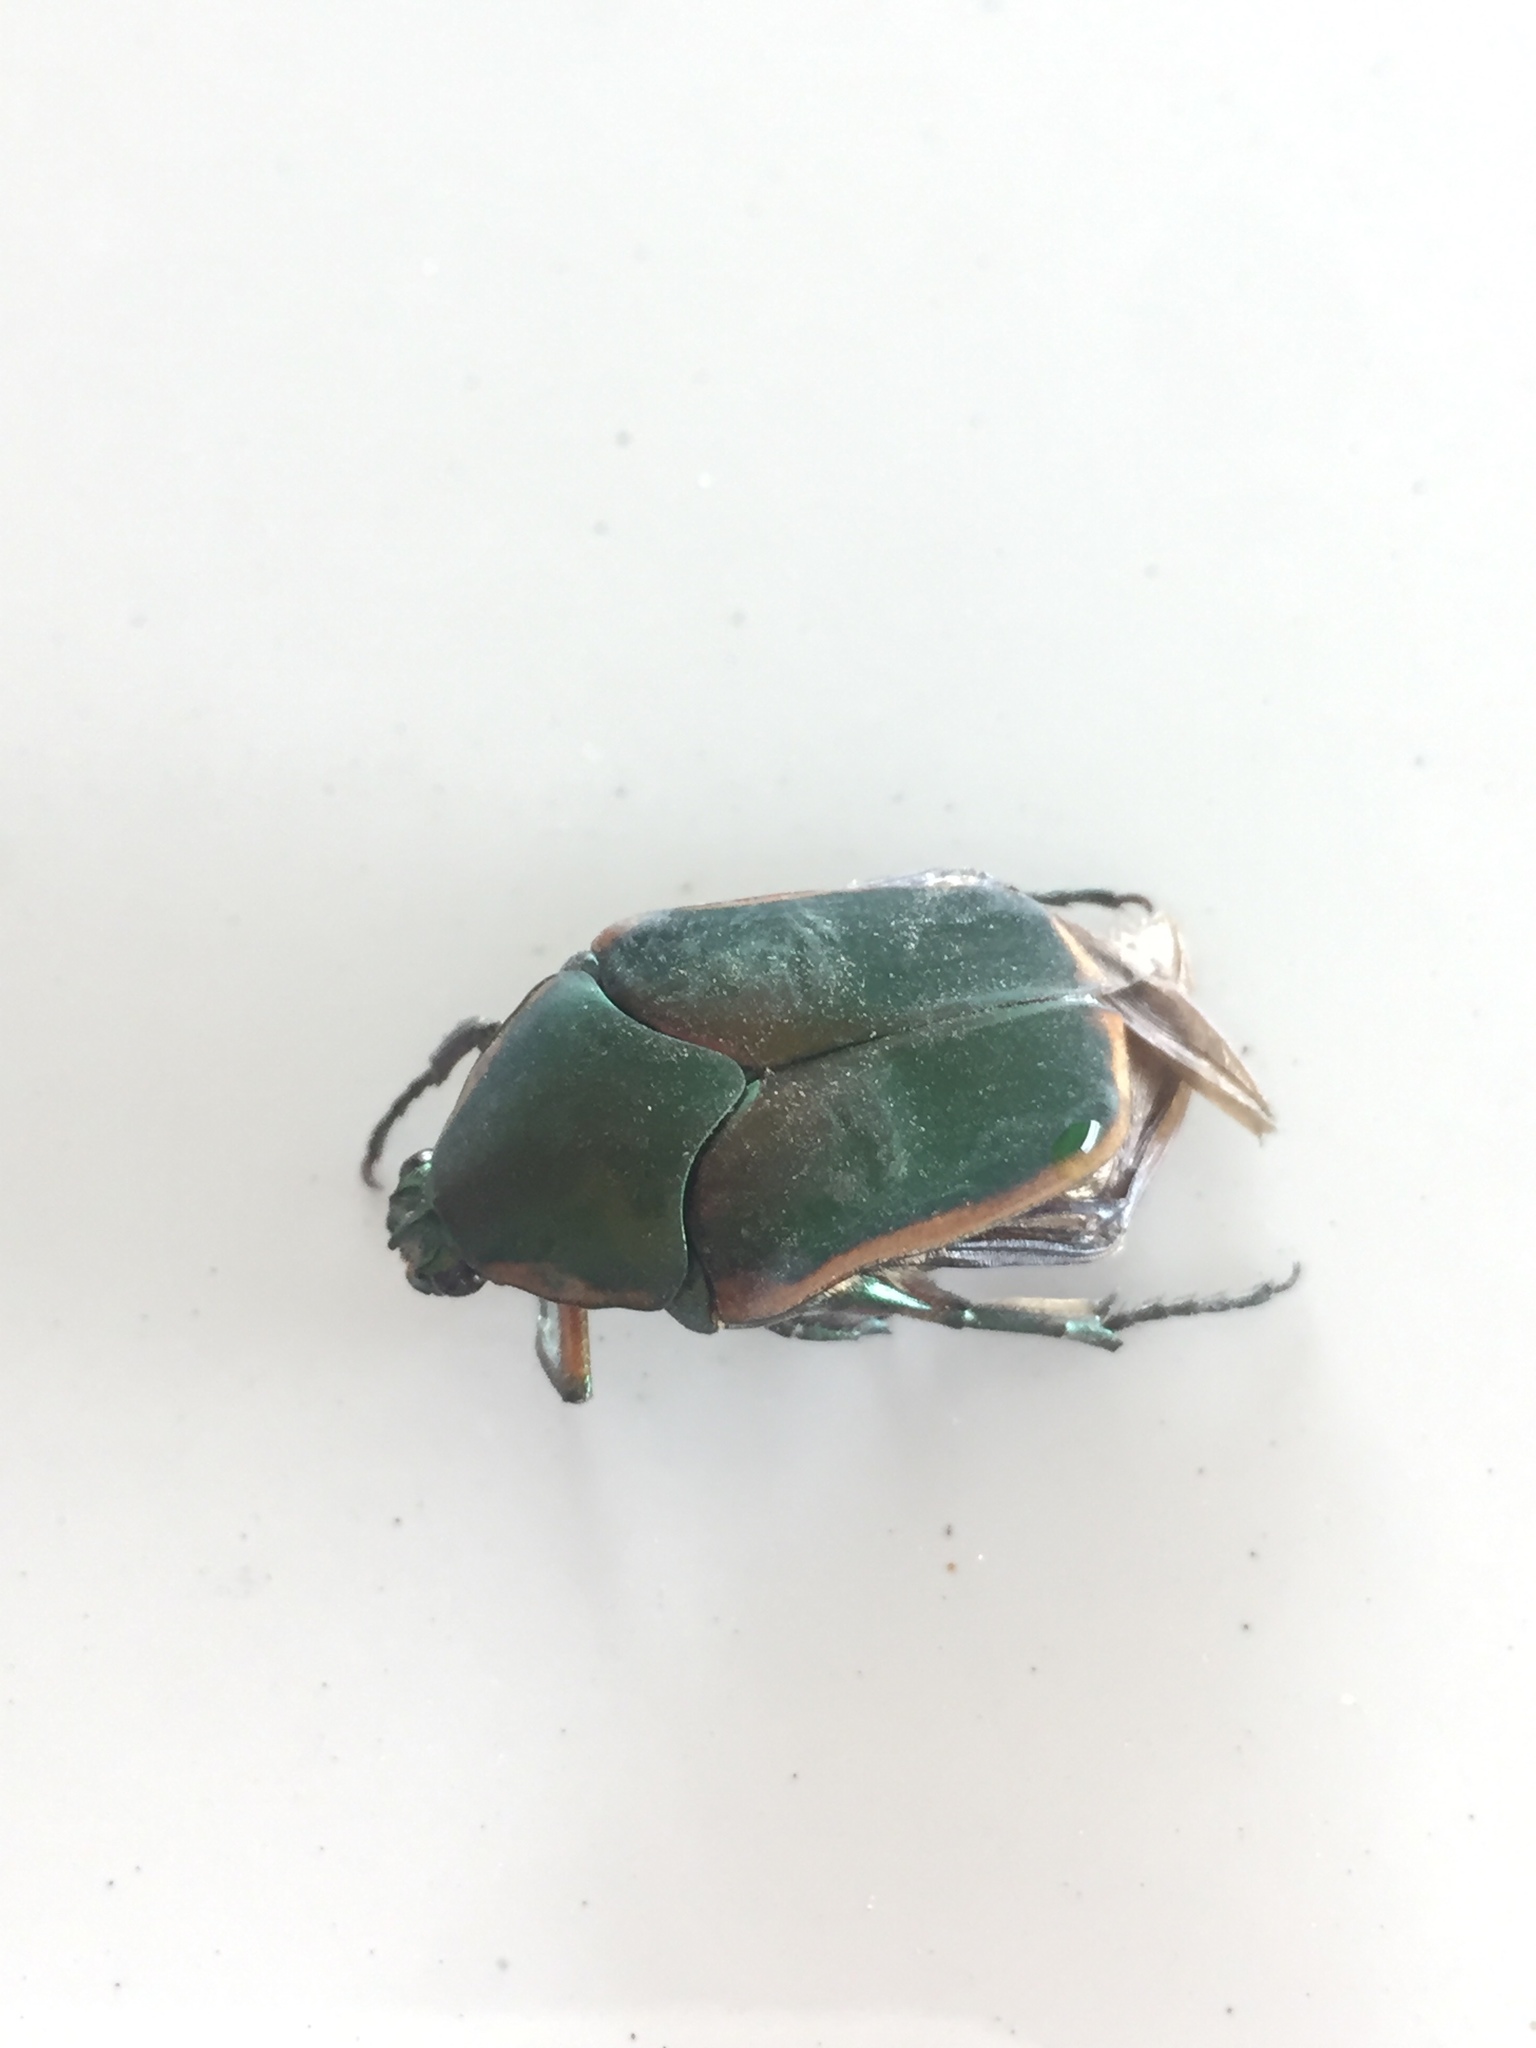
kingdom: Animalia
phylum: Arthropoda
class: Insecta
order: Coleoptera
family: Scarabaeidae
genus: Cotinis
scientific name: Cotinis nitida
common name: Common green june beetle
